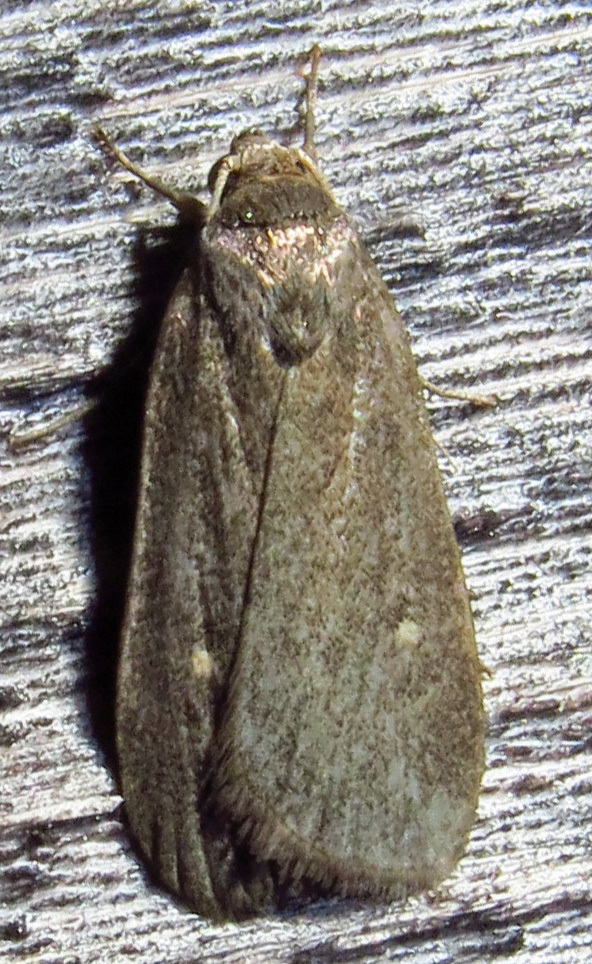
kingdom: Animalia
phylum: Arthropoda
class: Insecta
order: Lepidoptera
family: Noctuidae
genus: Proxenus
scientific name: Proxenus miranda
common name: Miranda moth
